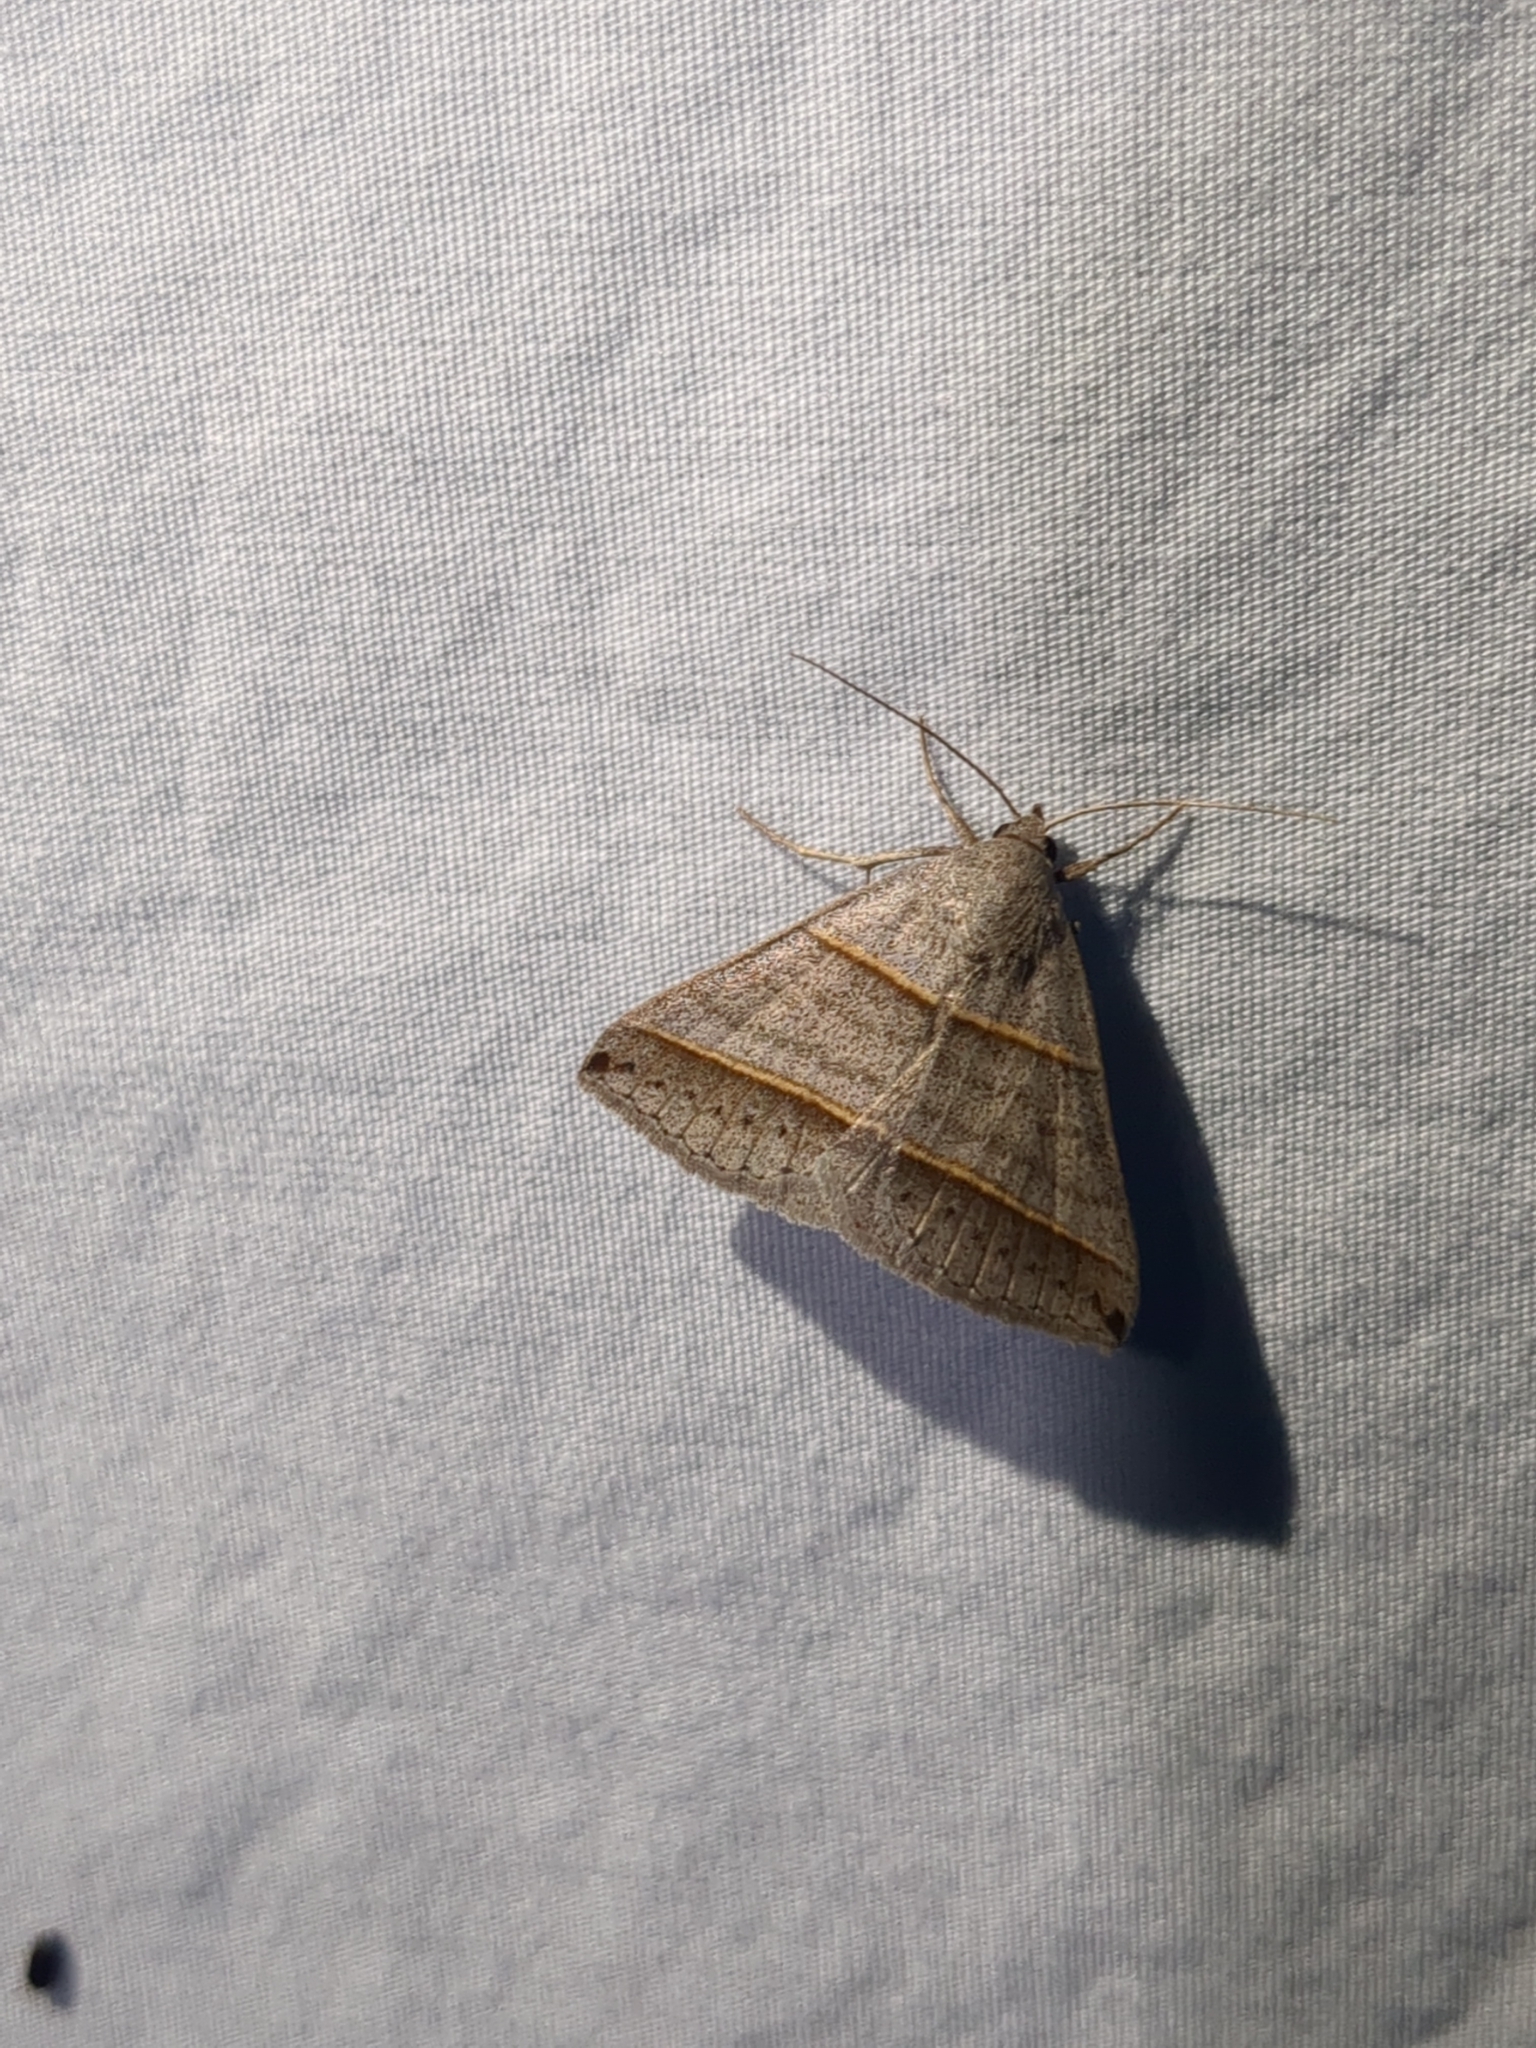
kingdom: Animalia
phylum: Arthropoda
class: Insecta
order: Lepidoptera
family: Erebidae
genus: Ptichodis
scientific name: Ptichodis vinculum
